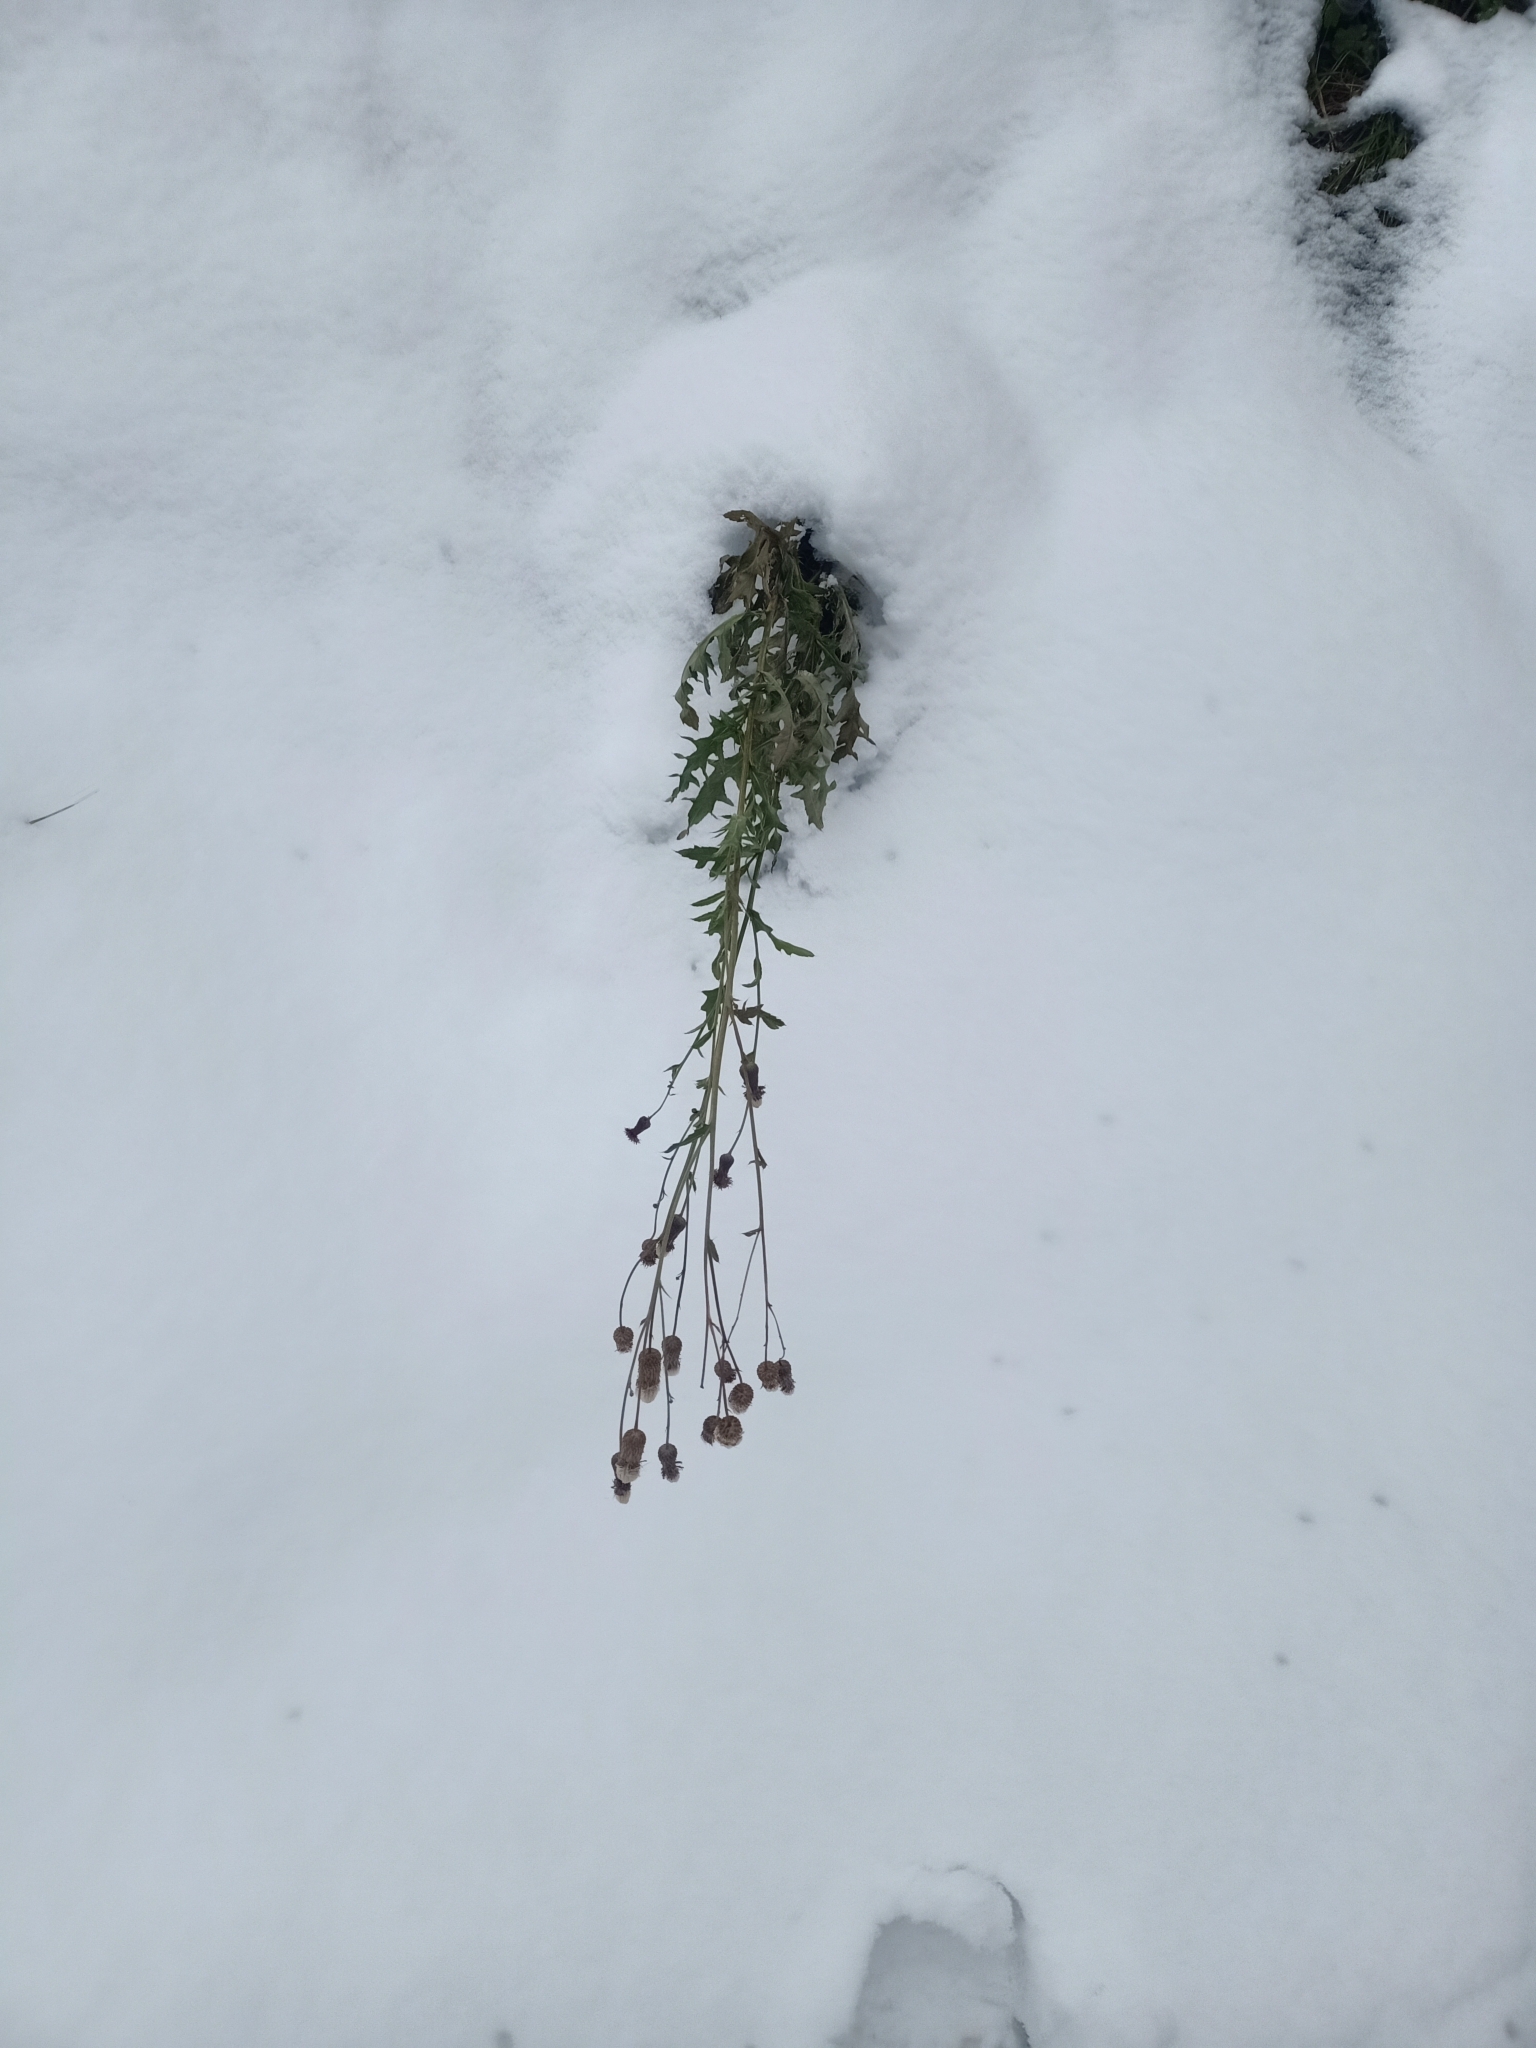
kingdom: Plantae
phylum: Tracheophyta
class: Magnoliopsida
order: Asterales
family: Asteraceae
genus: Cirsium
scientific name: Cirsium arvense
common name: Creeping thistle
